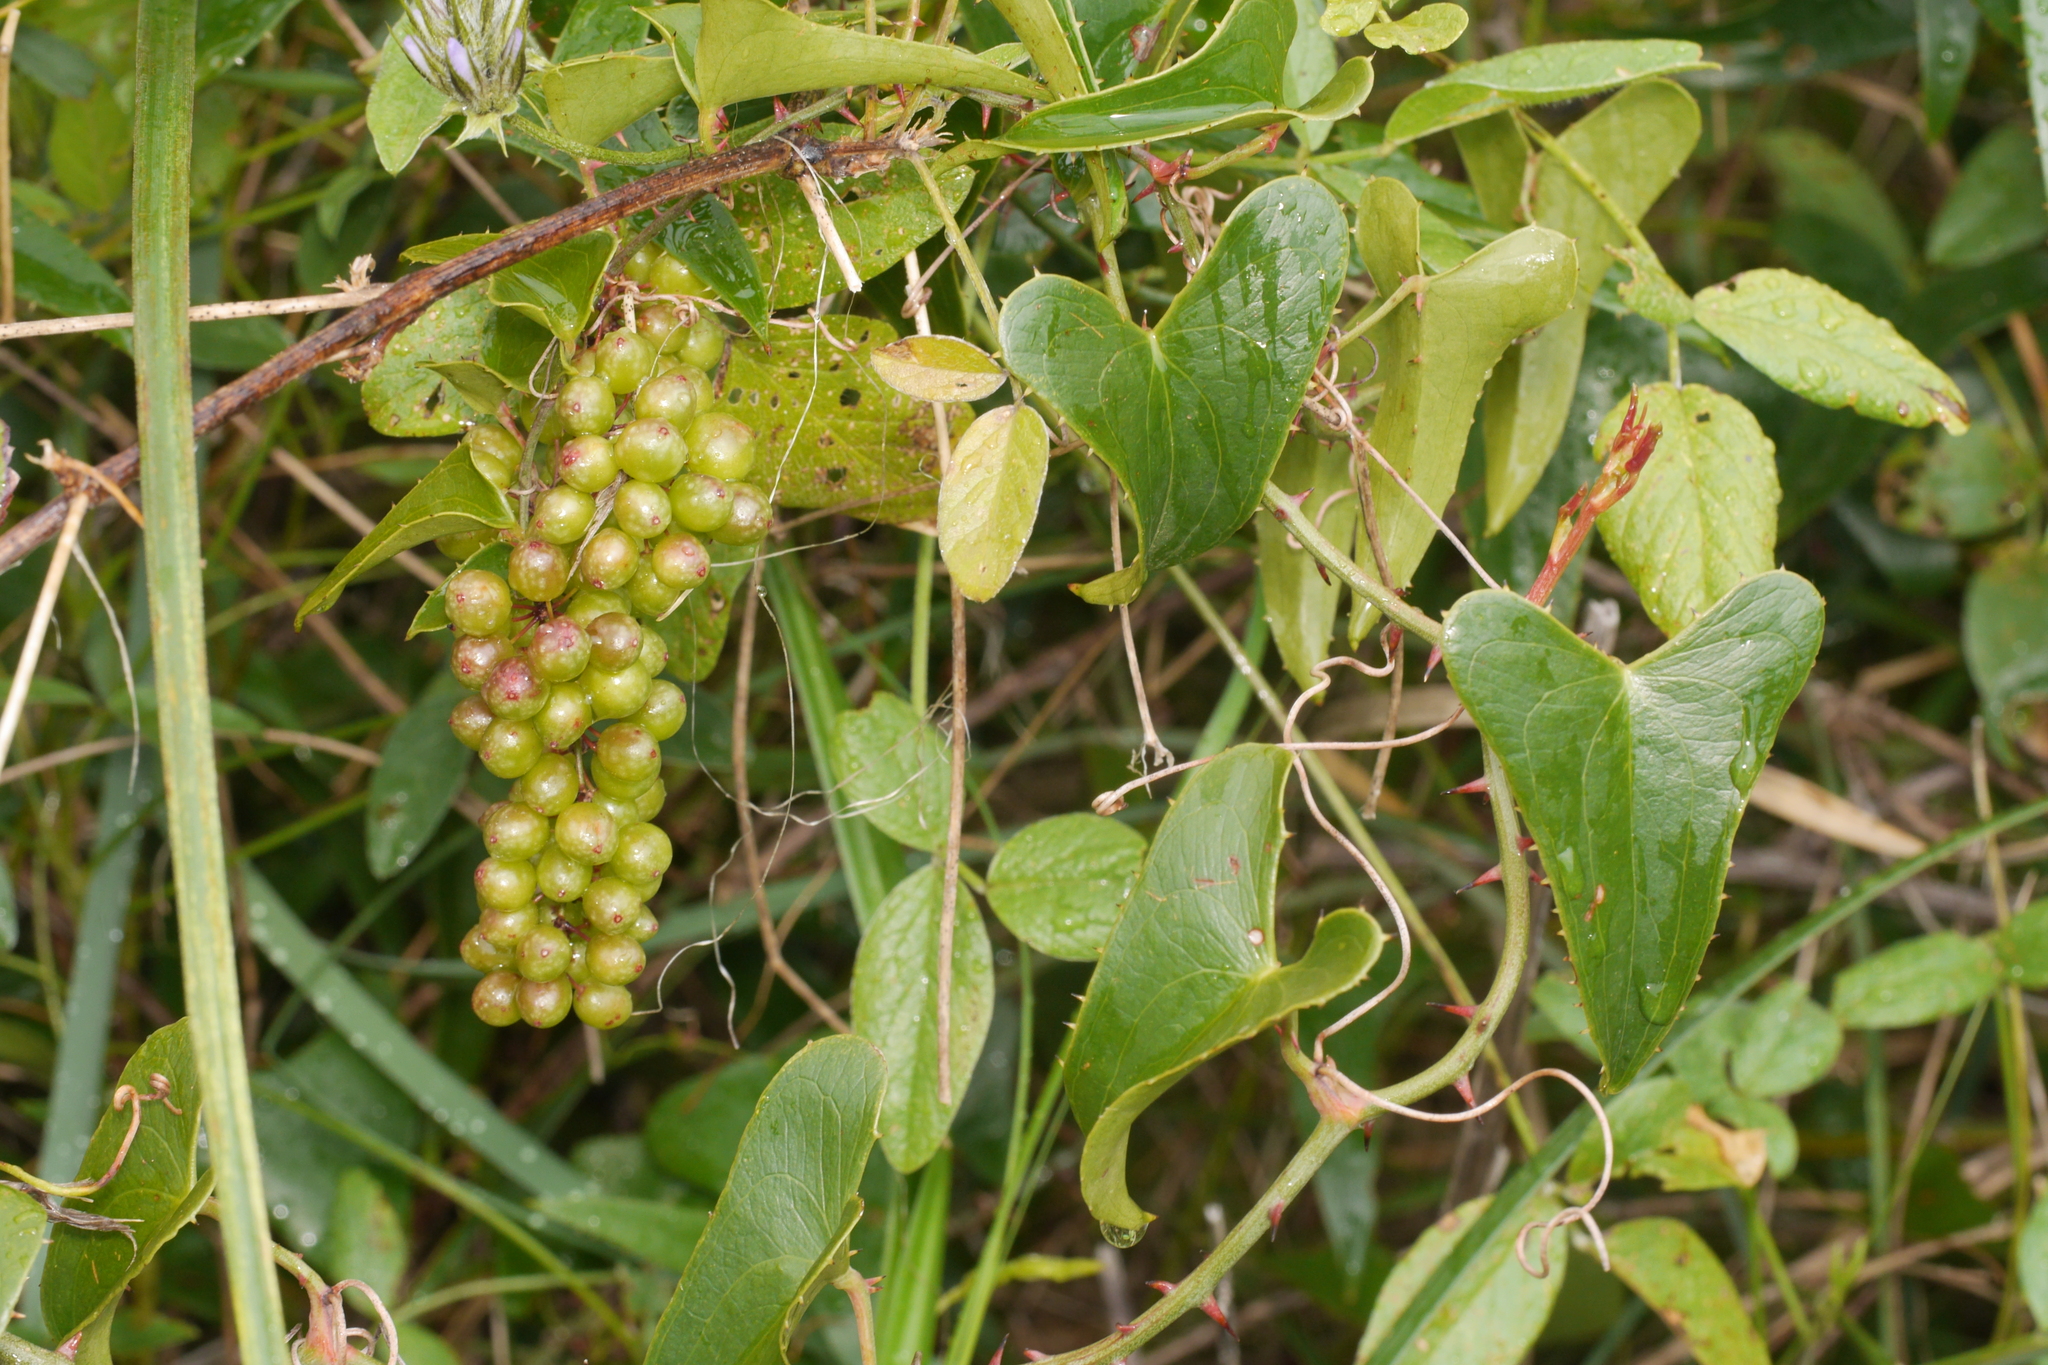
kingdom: Plantae
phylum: Tracheophyta
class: Liliopsida
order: Liliales
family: Smilacaceae
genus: Smilax
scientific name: Smilax aspera
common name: Common smilax
